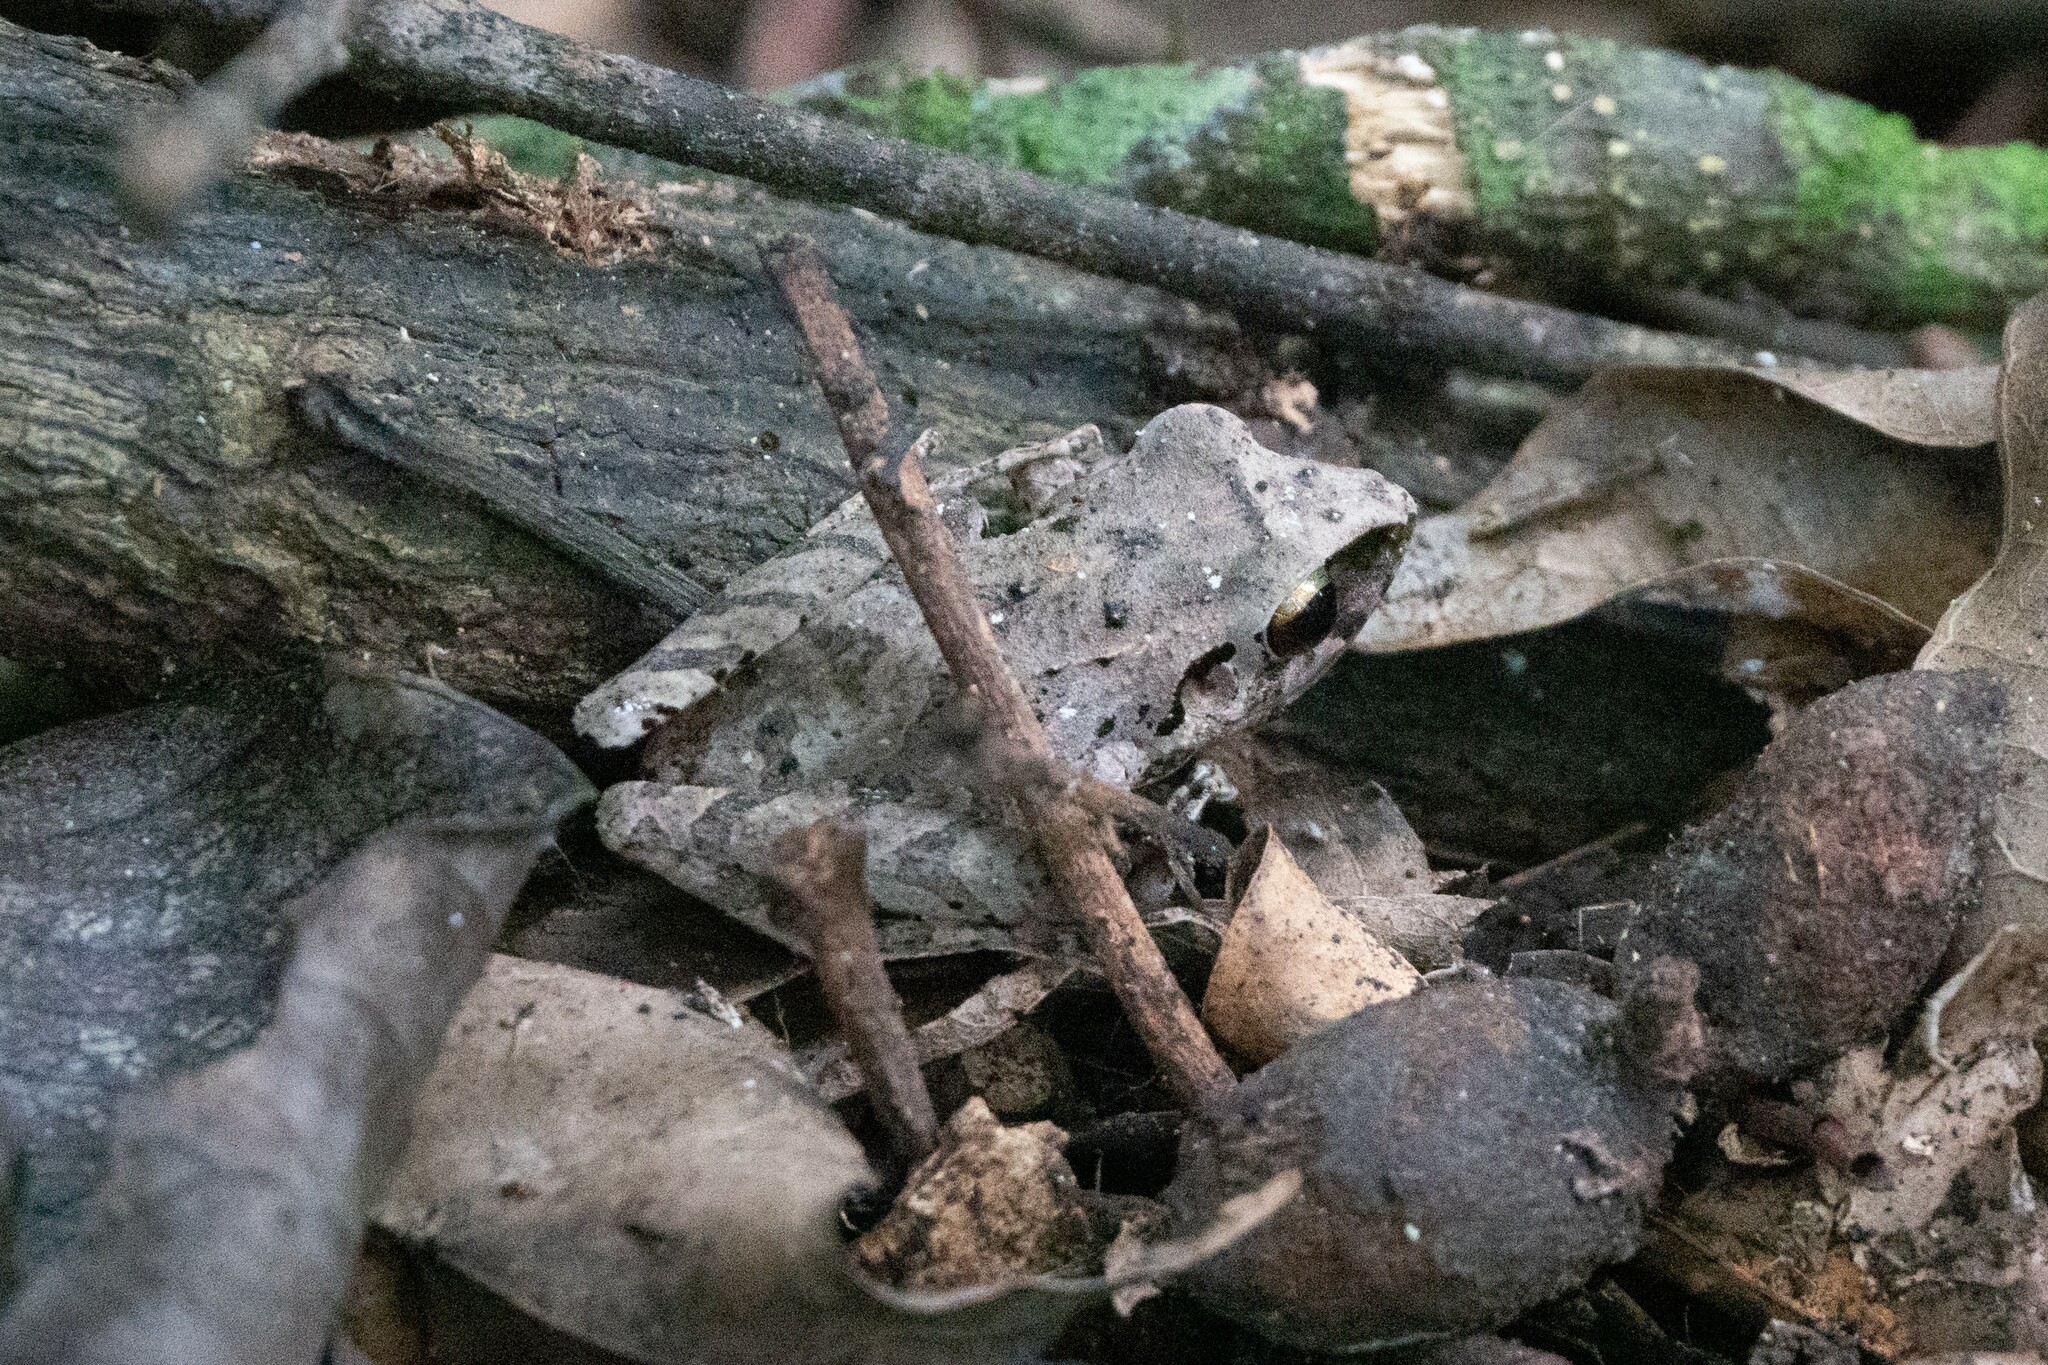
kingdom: Animalia
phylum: Chordata
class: Amphibia
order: Anura
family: Craugastoridae
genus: Pristimantis
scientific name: Pristimantis achatinus
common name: Cachabi robber frog
